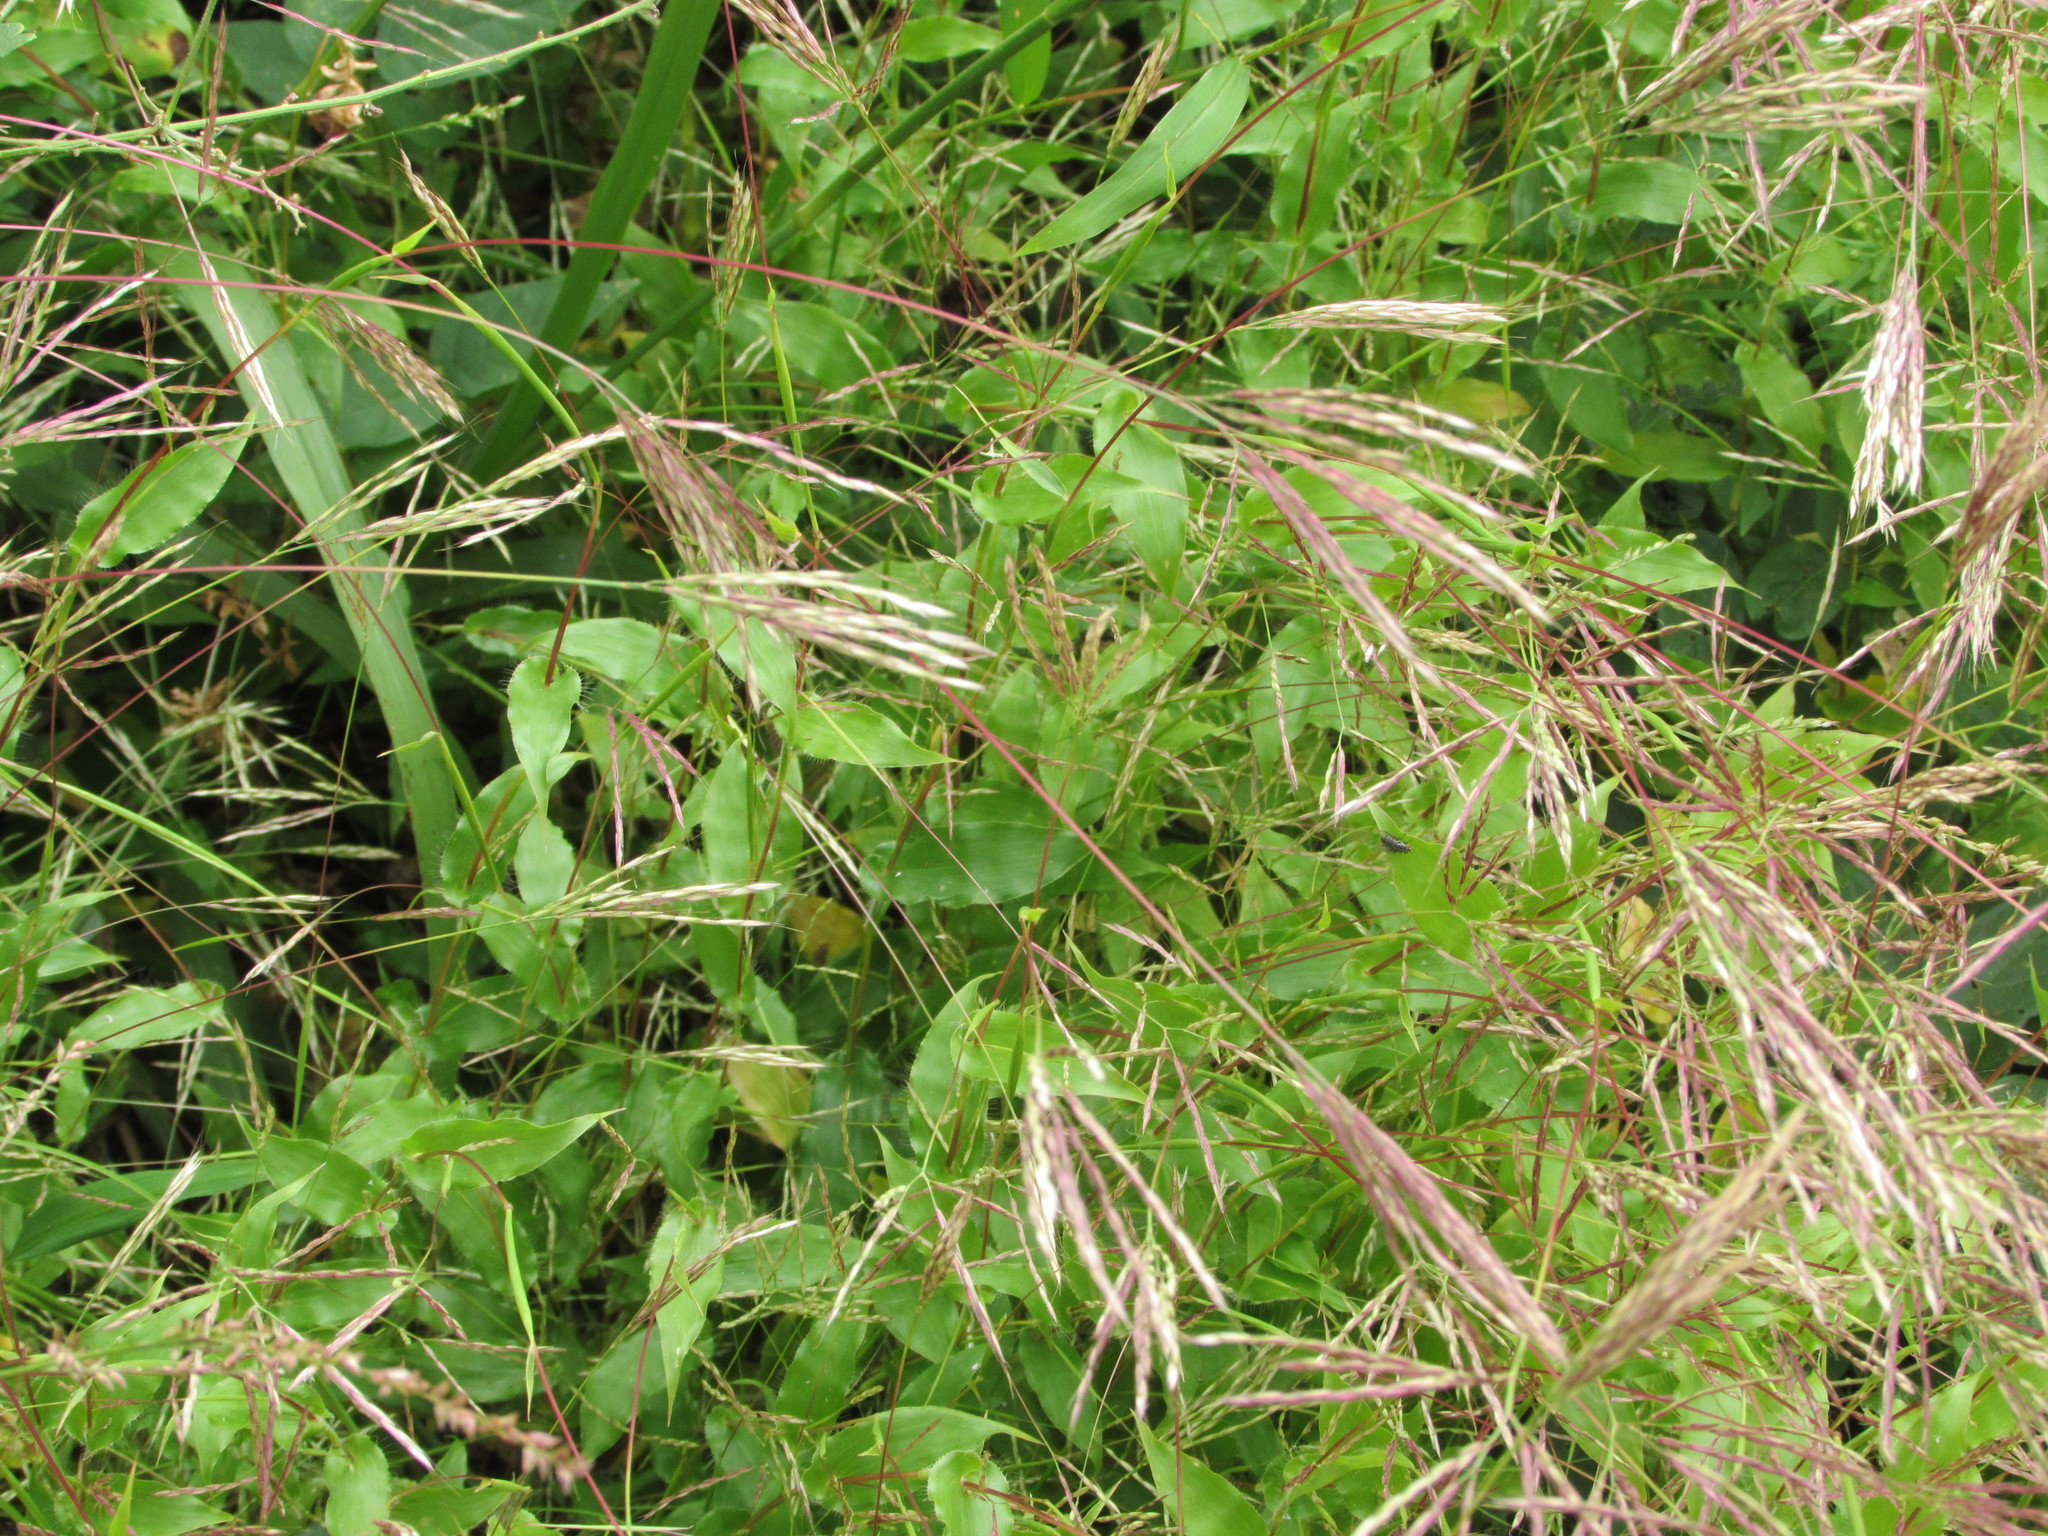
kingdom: Plantae
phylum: Tracheophyta
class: Liliopsida
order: Poales
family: Poaceae
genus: Arthraxon
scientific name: Arthraxon hispidus
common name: Small carpgrass
